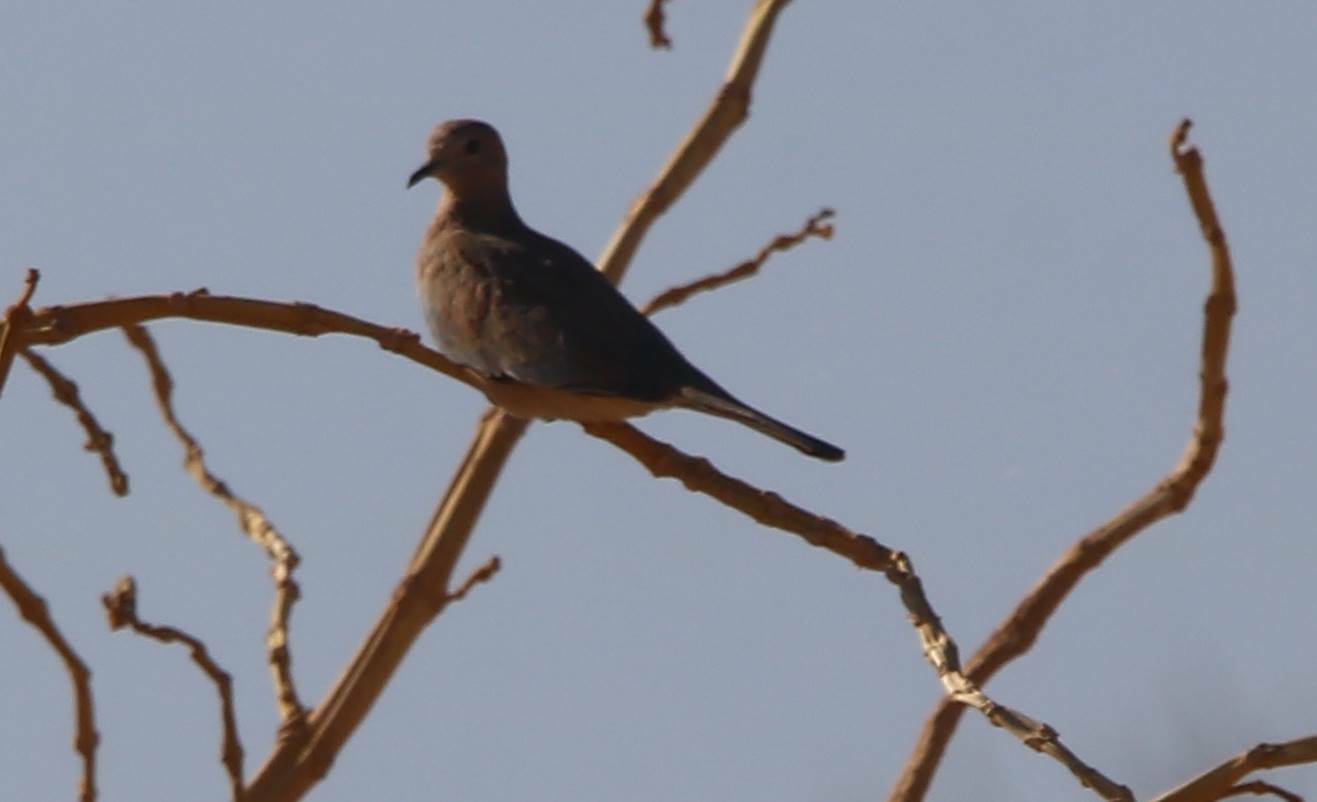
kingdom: Animalia
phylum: Chordata
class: Aves
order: Columbiformes
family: Columbidae
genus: Spilopelia
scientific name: Spilopelia senegalensis
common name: Laughing dove
